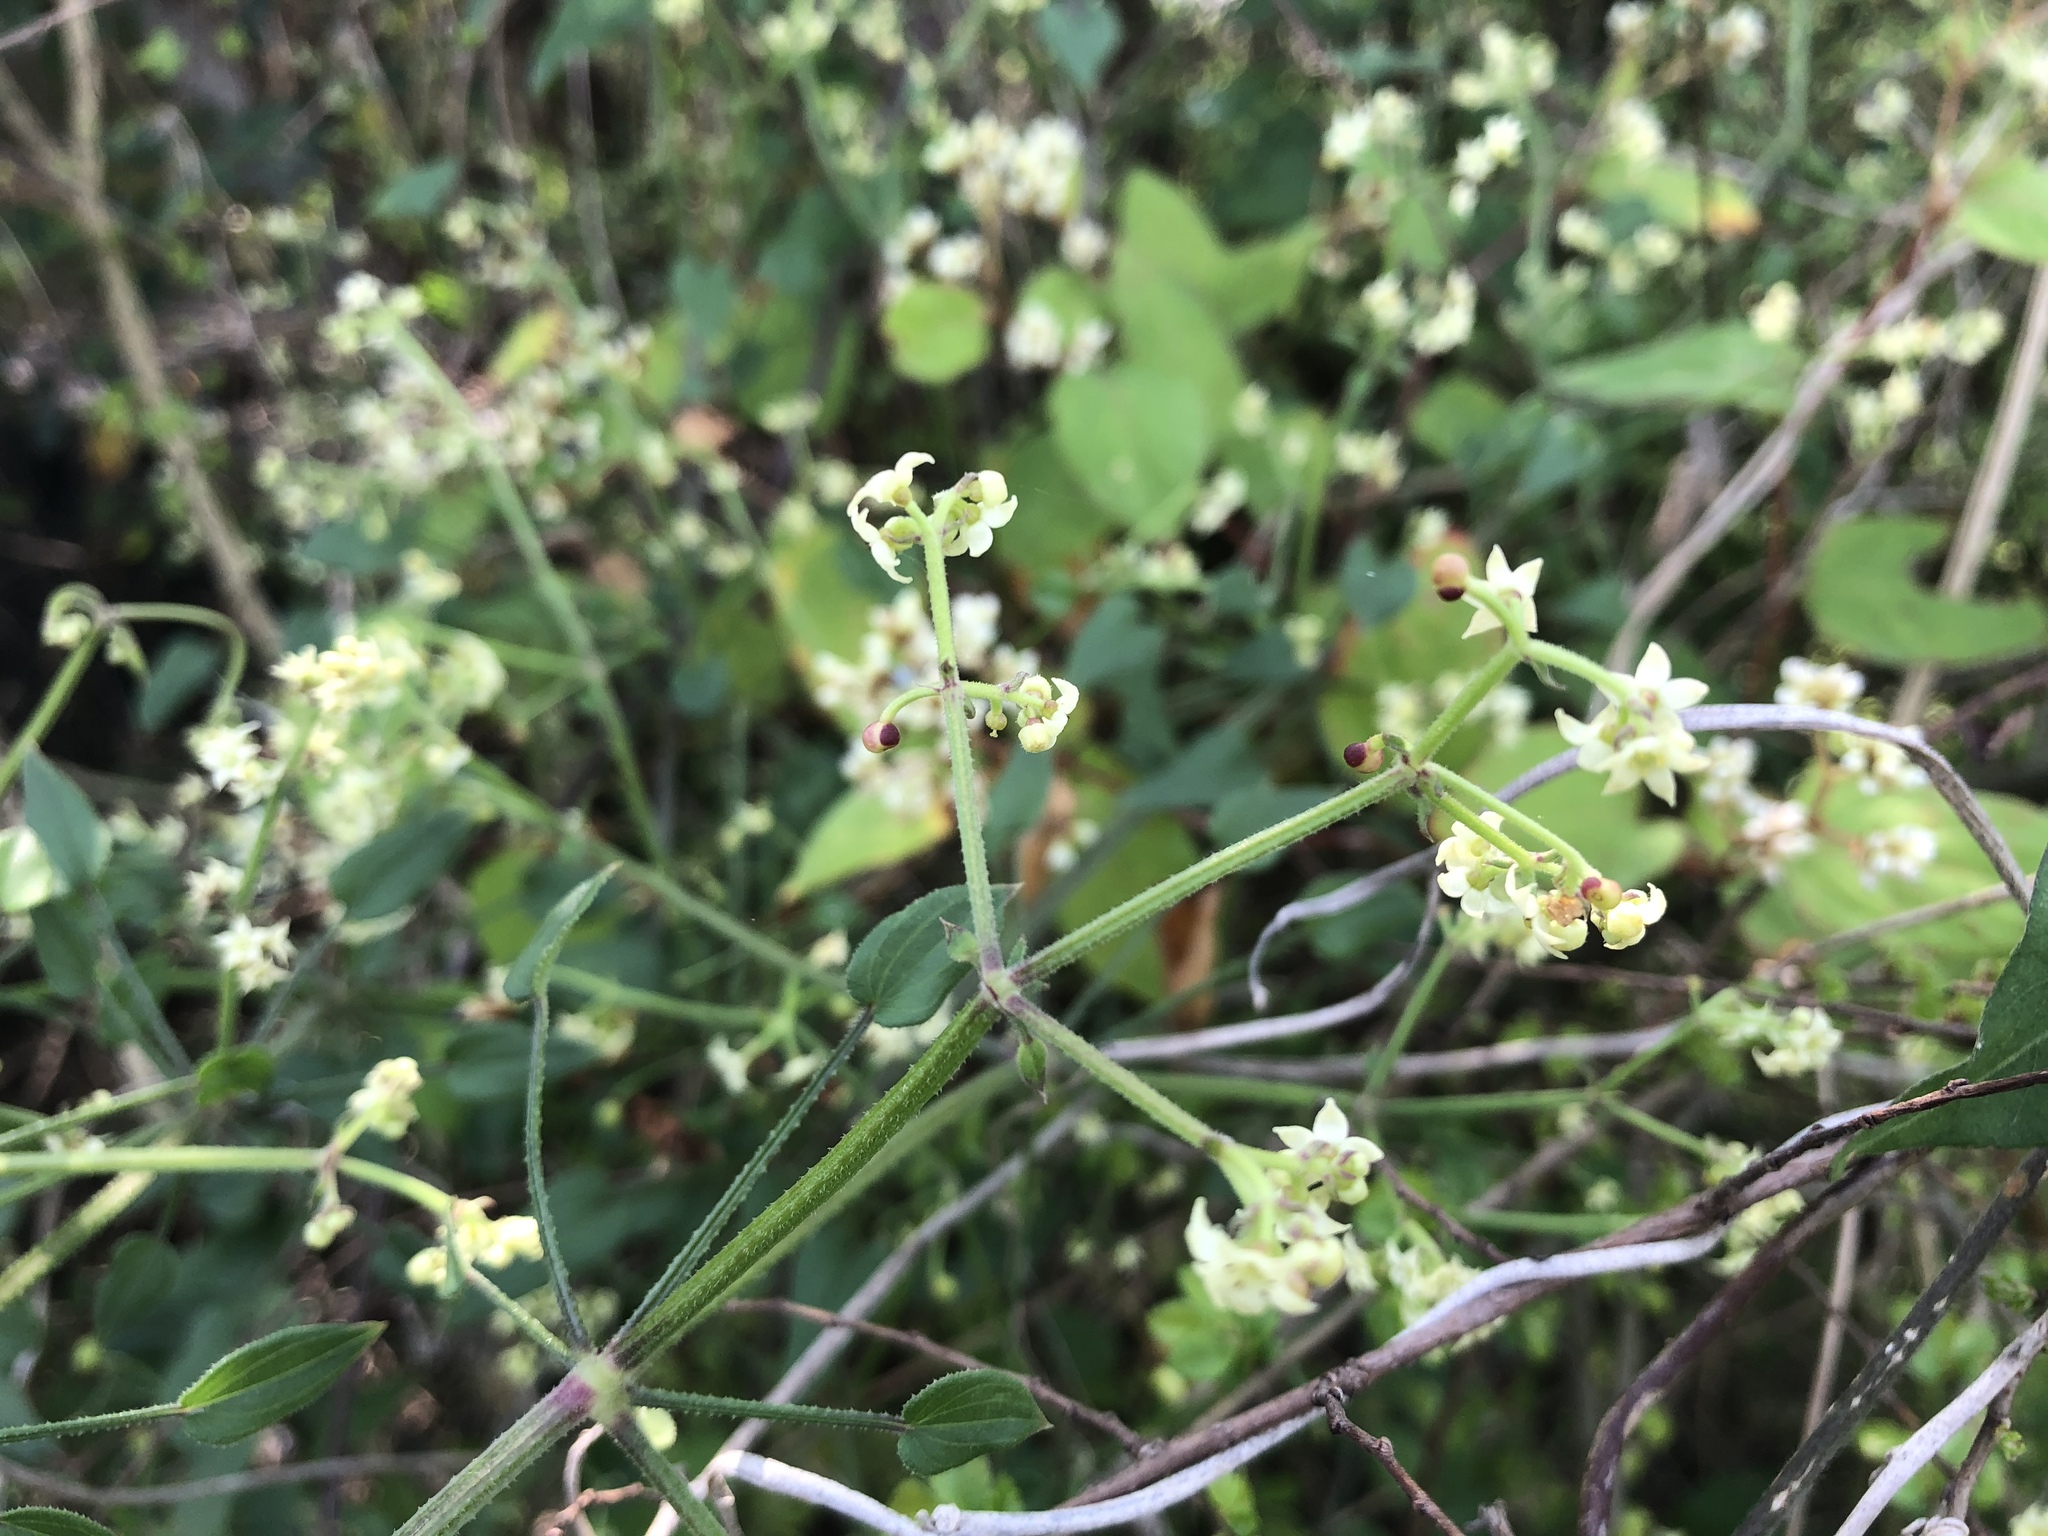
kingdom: Plantae
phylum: Tracheophyta
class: Magnoliopsida
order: Gentianales
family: Rubiaceae
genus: Rubia
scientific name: Rubia argyi
